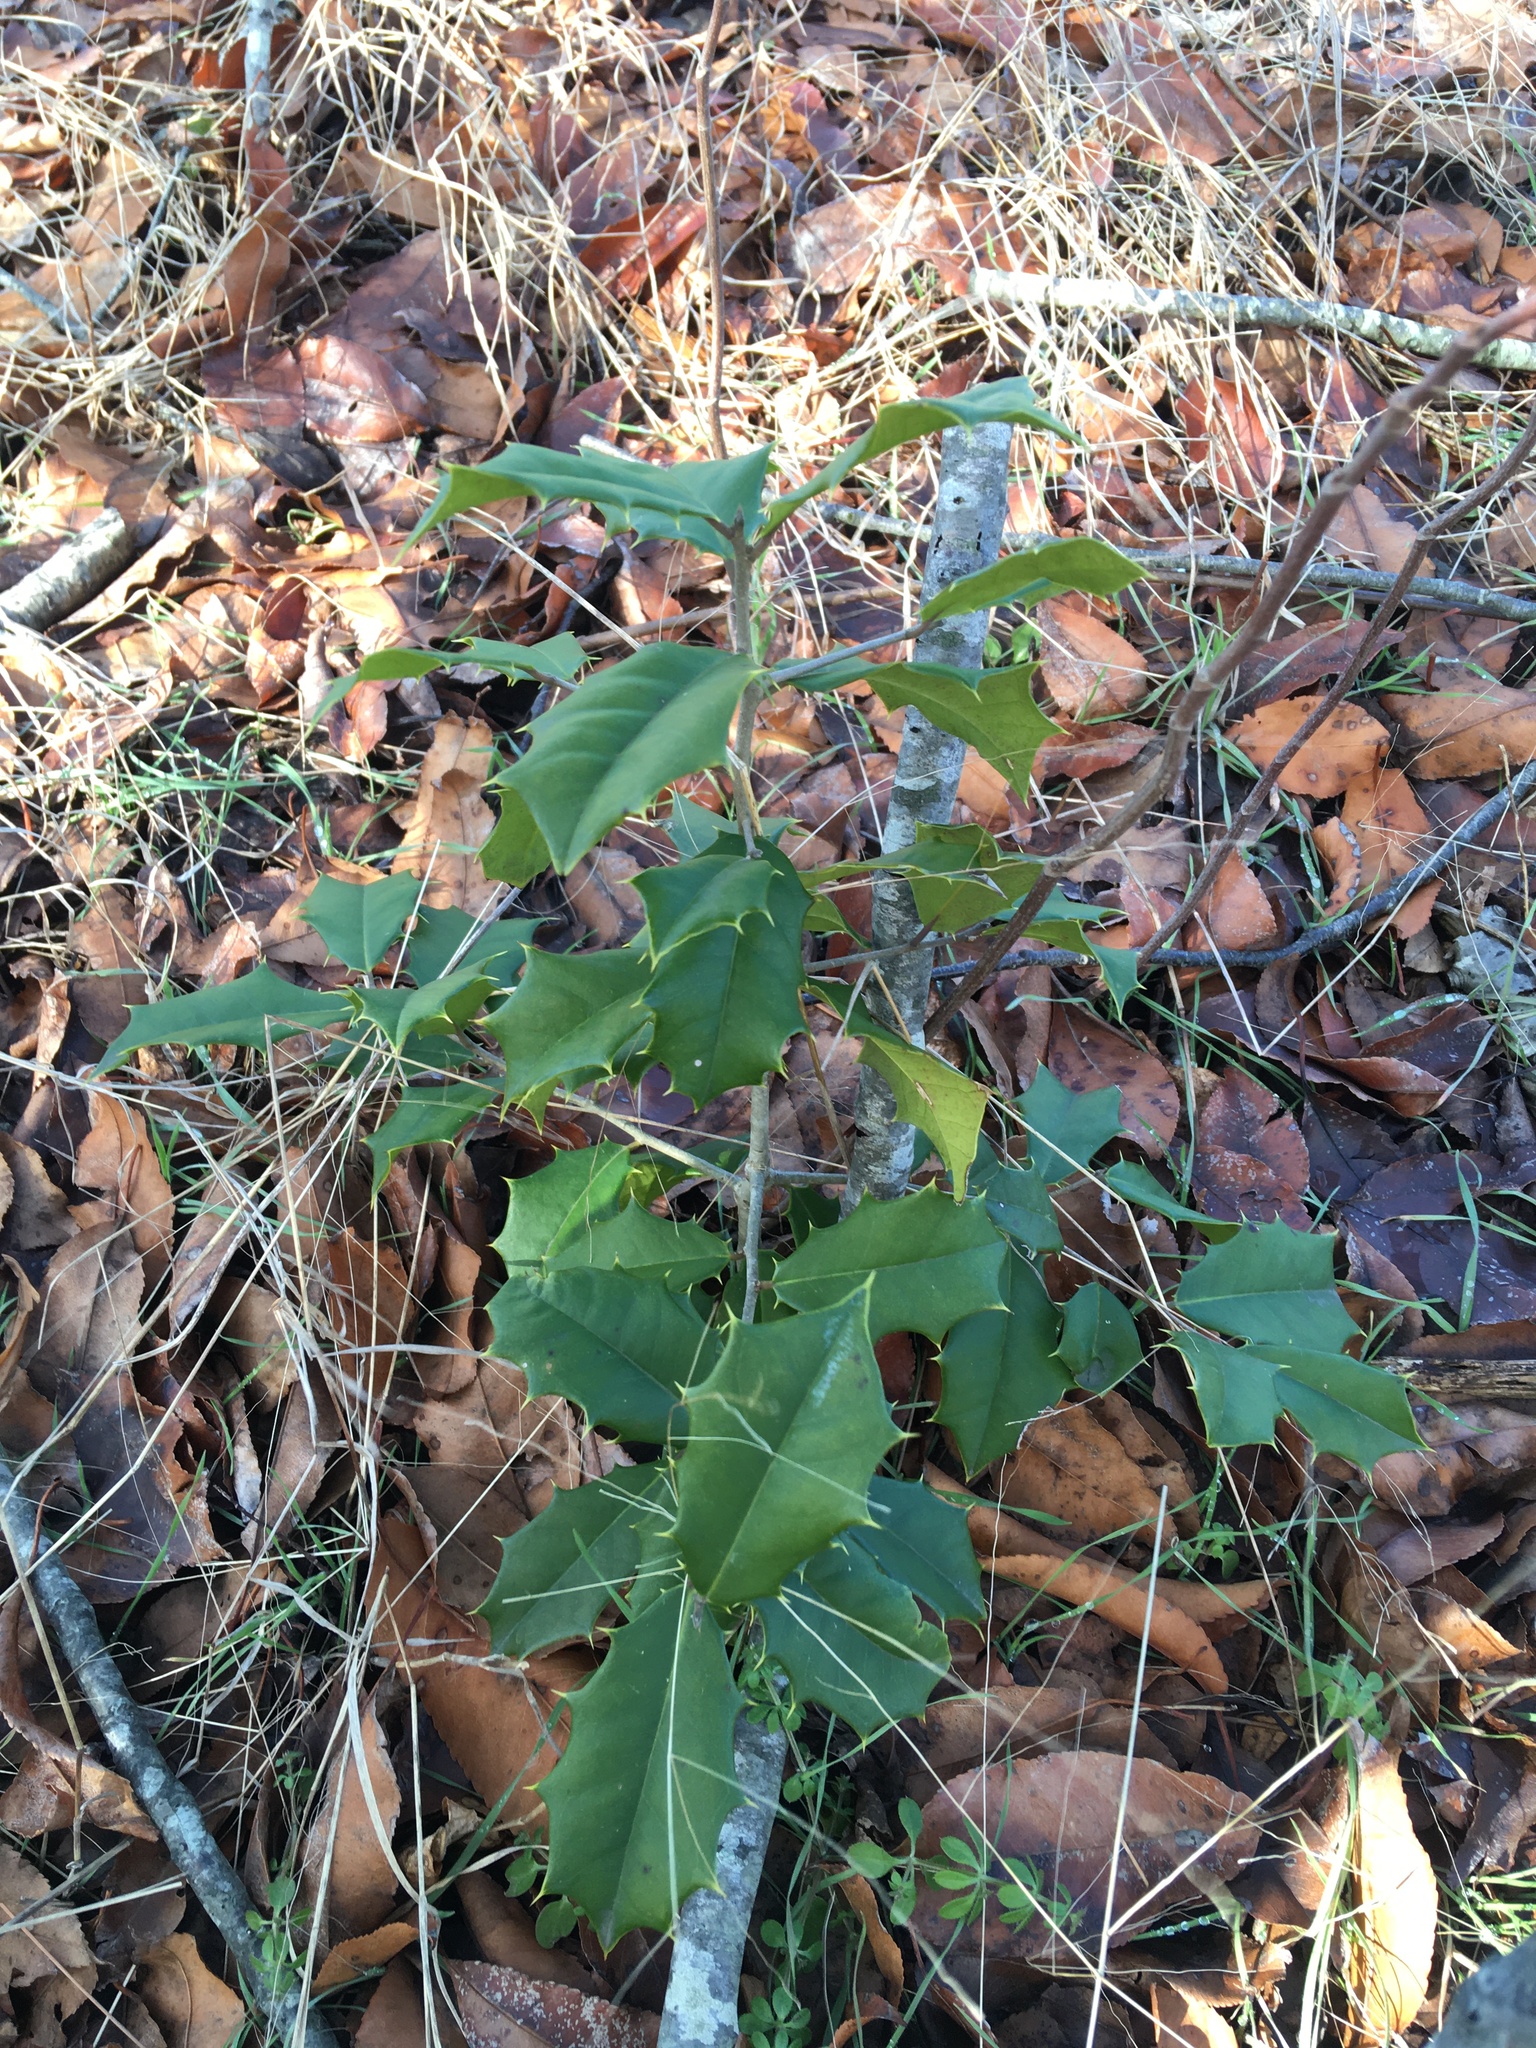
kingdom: Plantae
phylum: Tracheophyta
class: Magnoliopsida
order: Aquifoliales
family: Aquifoliaceae
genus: Ilex
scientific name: Ilex opaca
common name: American holly
